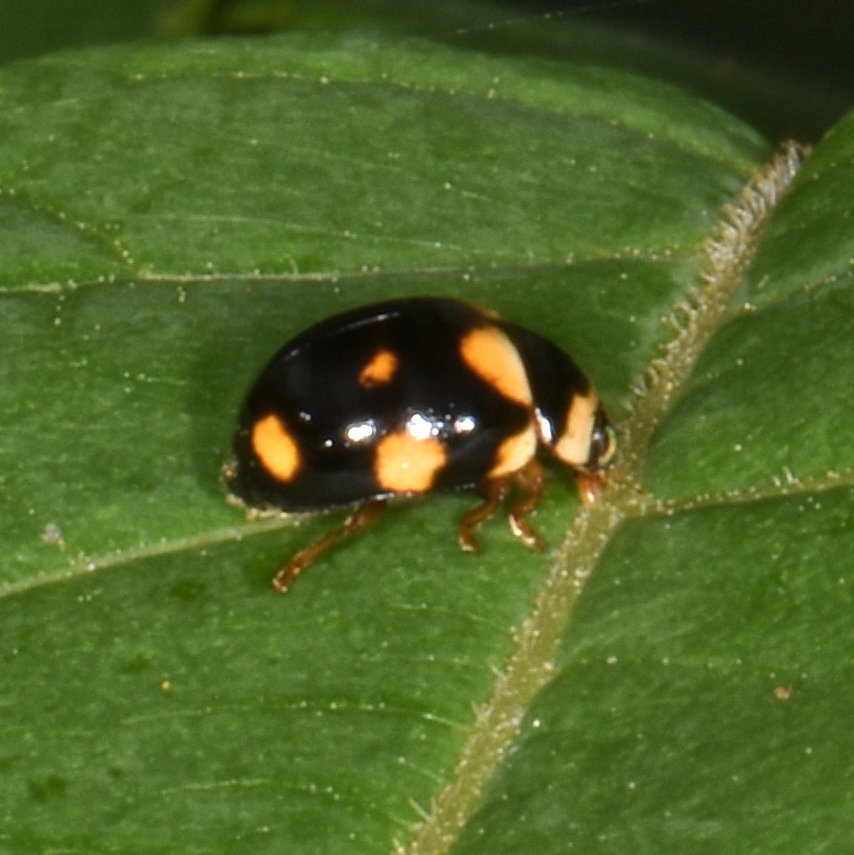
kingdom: Animalia
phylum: Arthropoda
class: Insecta
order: Coleoptera
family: Coccinellidae
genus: Brachiacantha
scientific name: Brachiacantha ursina
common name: Ursine spurleg lady beetle
